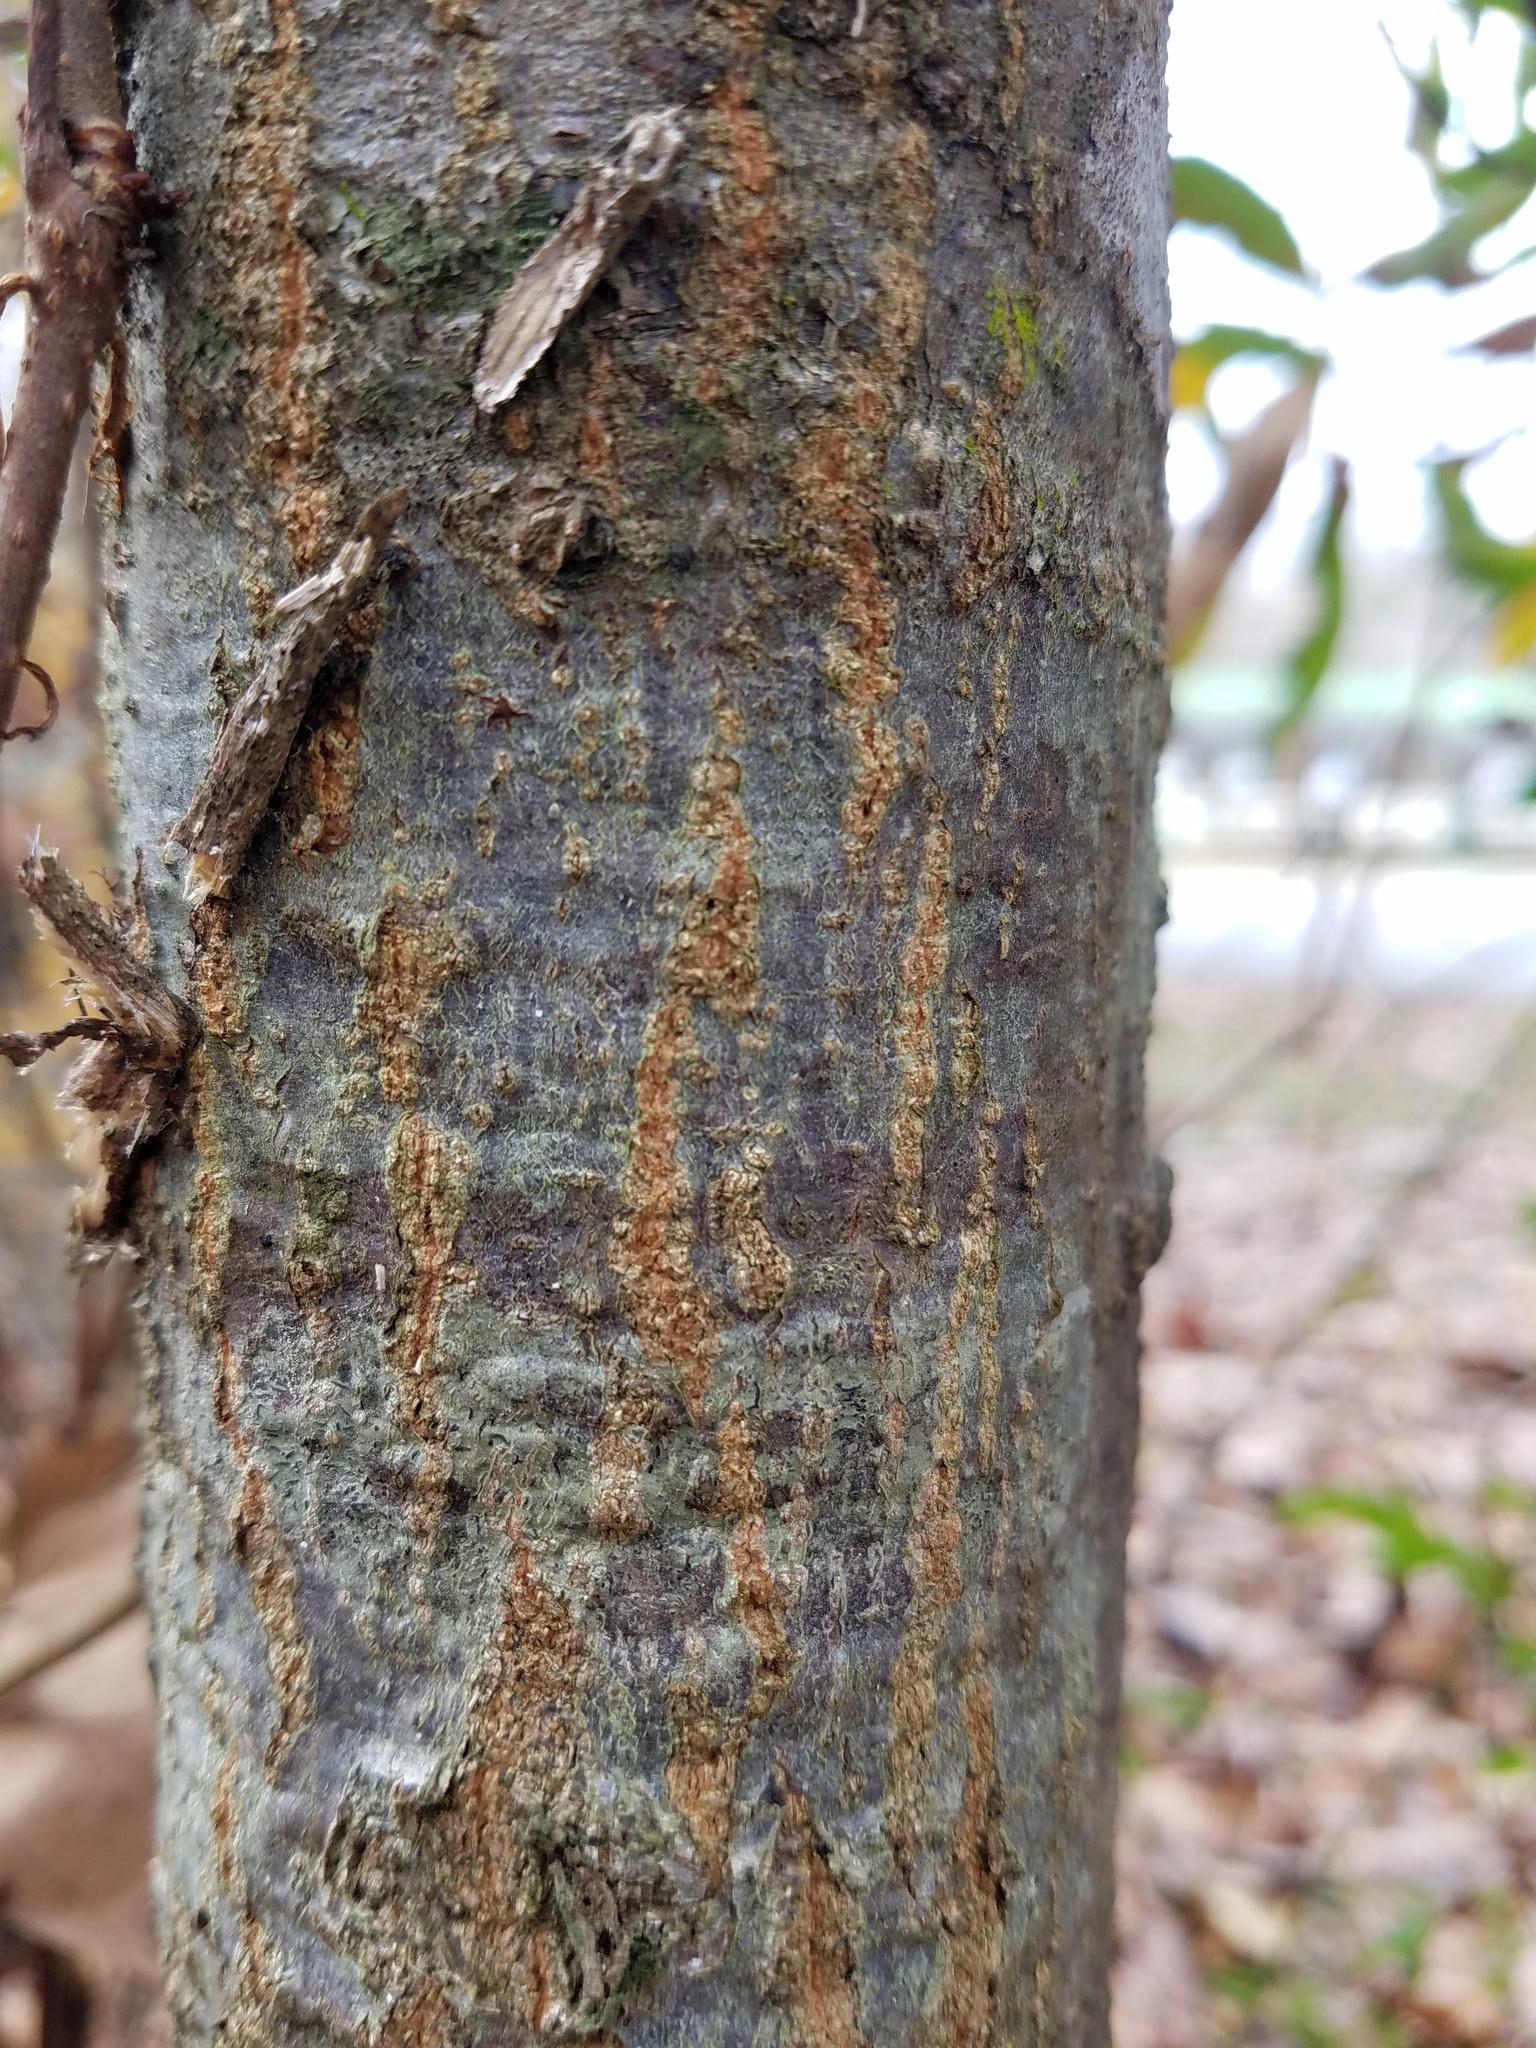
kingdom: Plantae
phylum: Tracheophyta
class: Magnoliopsida
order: Fagales
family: Fagaceae
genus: Quercus
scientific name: Quercus phellos
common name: Willow oak
